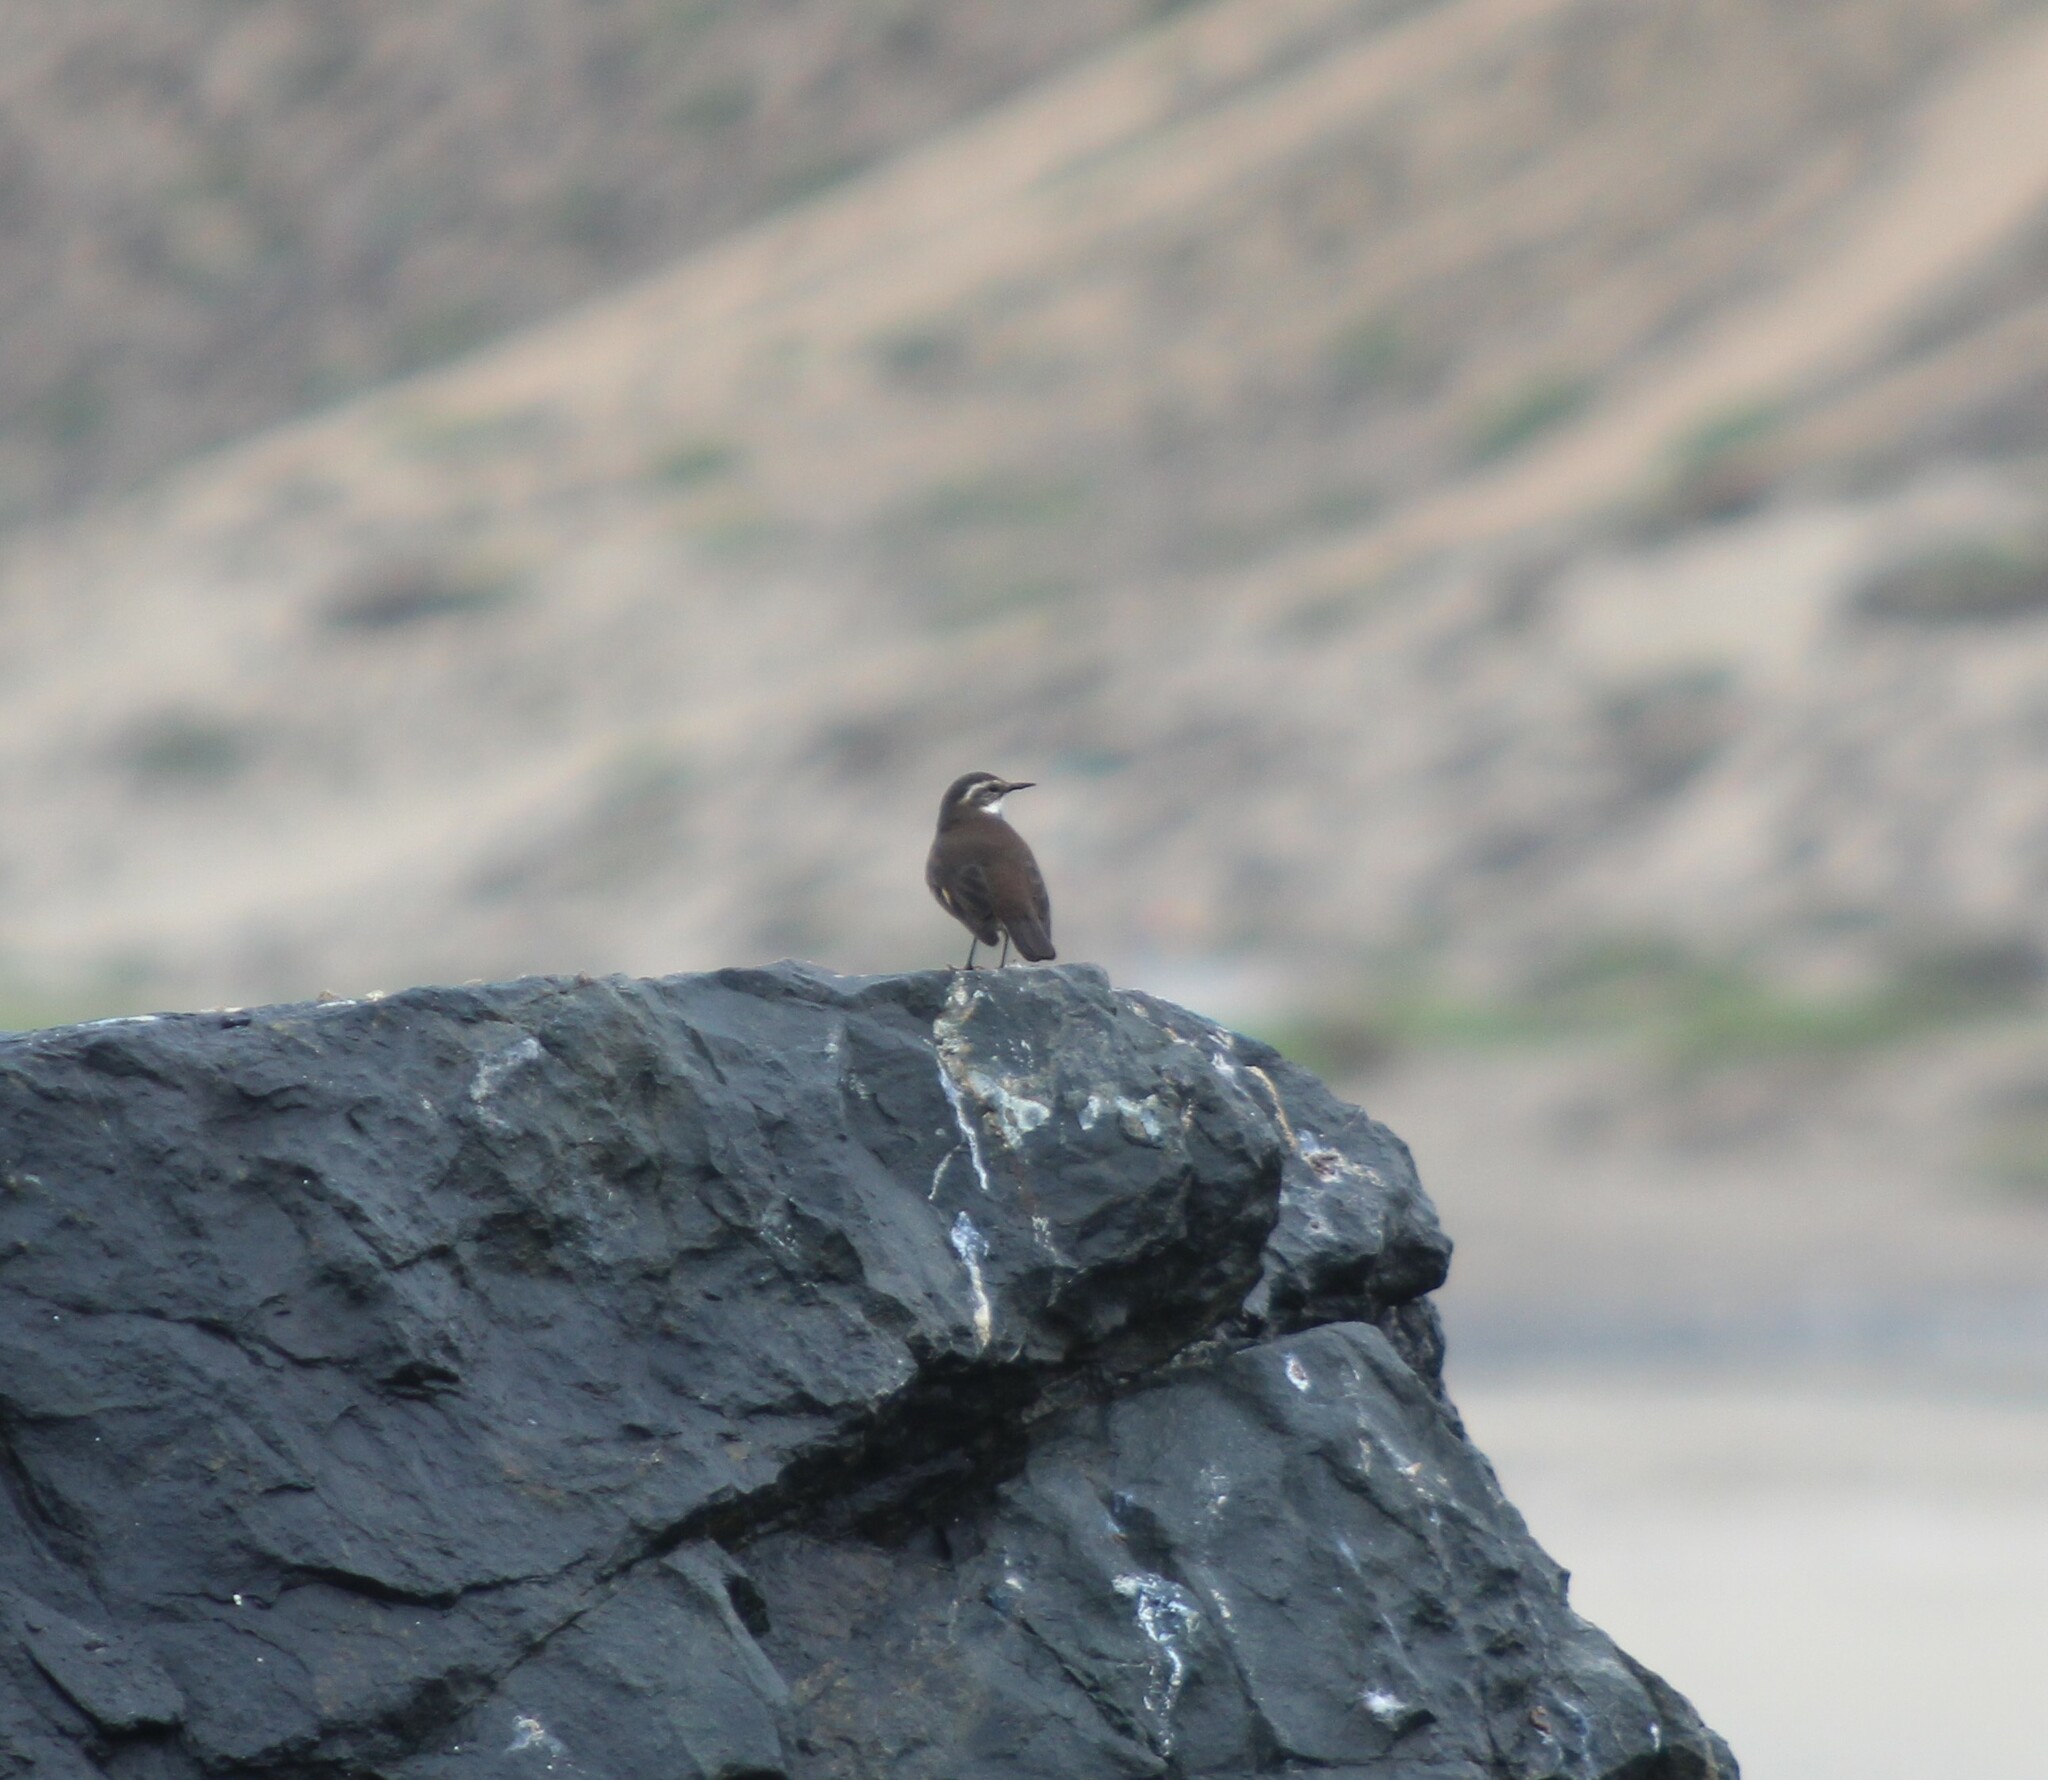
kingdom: Animalia
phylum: Chordata
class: Aves
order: Passeriformes
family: Furnariidae
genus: Cinclodes
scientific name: Cinclodes nigrofumosus
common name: Chilean seaside cinclodes
